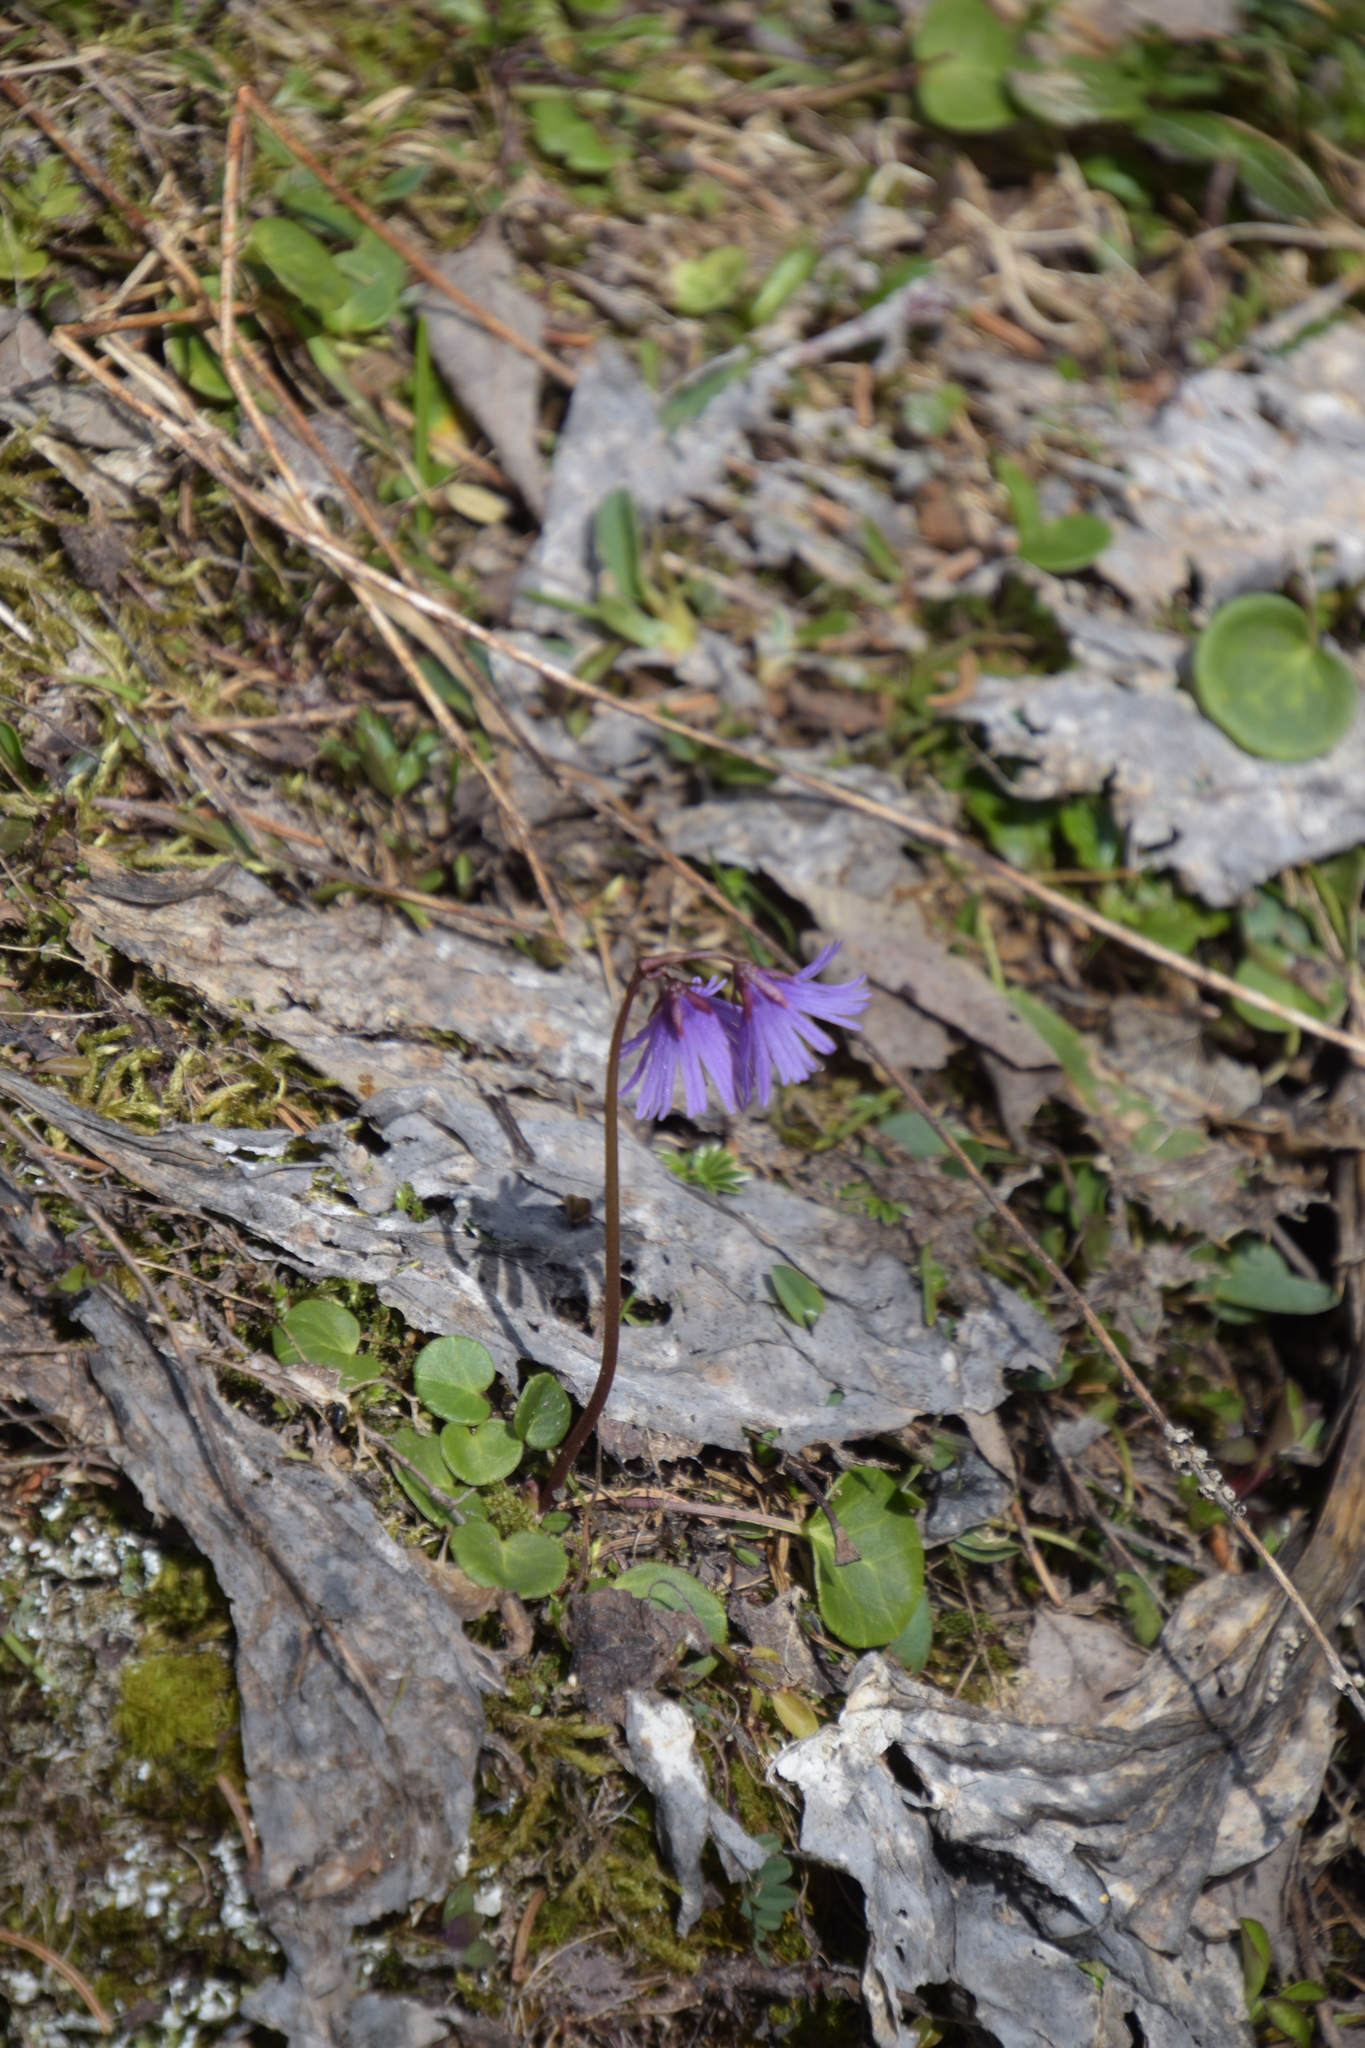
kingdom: Plantae
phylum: Tracheophyta
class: Magnoliopsida
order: Ericales
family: Primulaceae
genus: Soldanella
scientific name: Soldanella alpina
